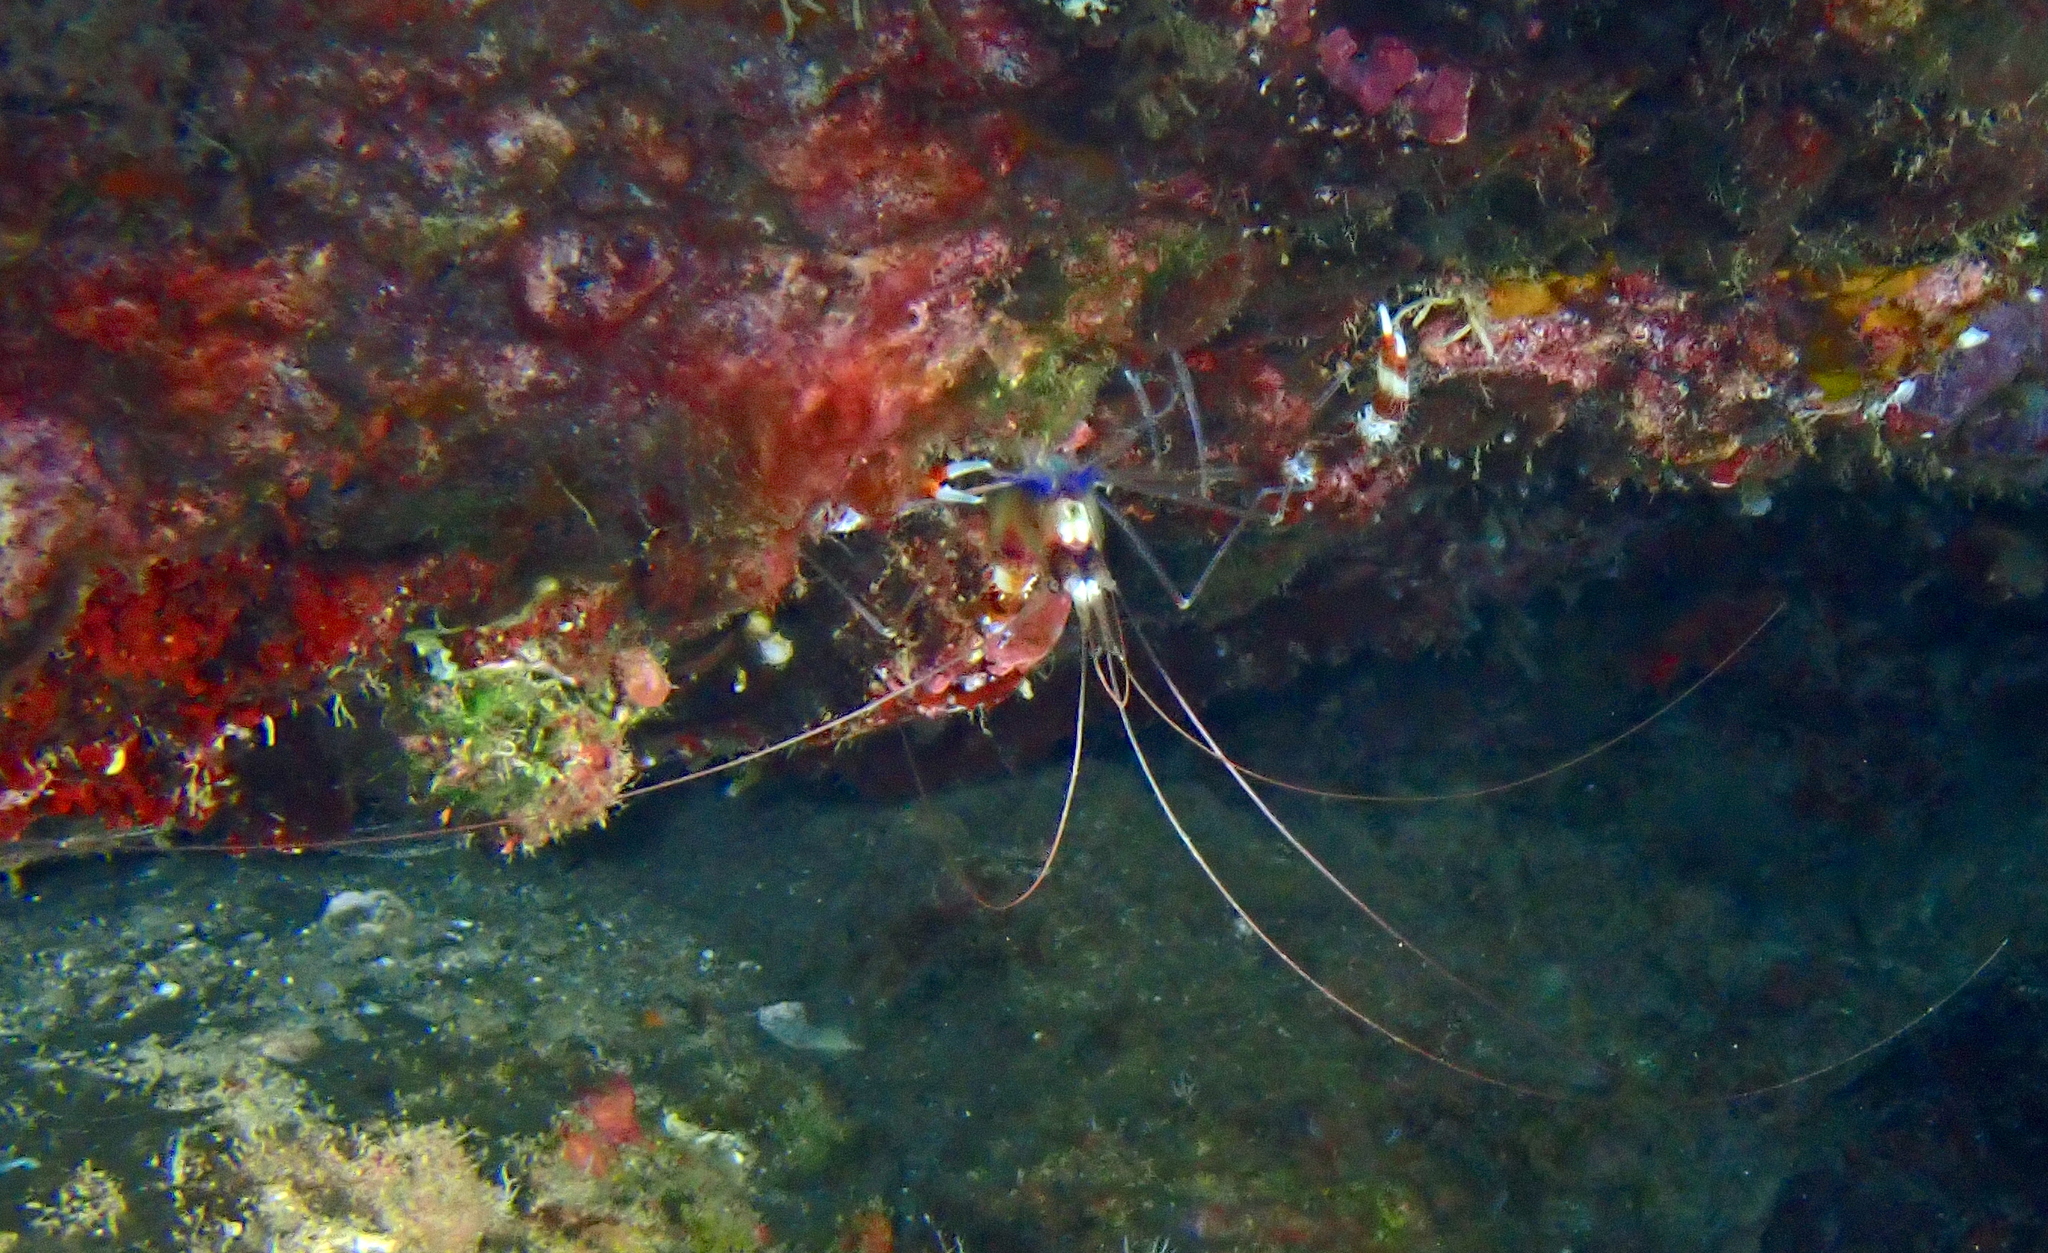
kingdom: Animalia
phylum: Arthropoda
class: Malacostraca
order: Decapoda
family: Stenopodidae
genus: Stenopus
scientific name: Stenopus hispidus
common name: Banded coral shrimp
